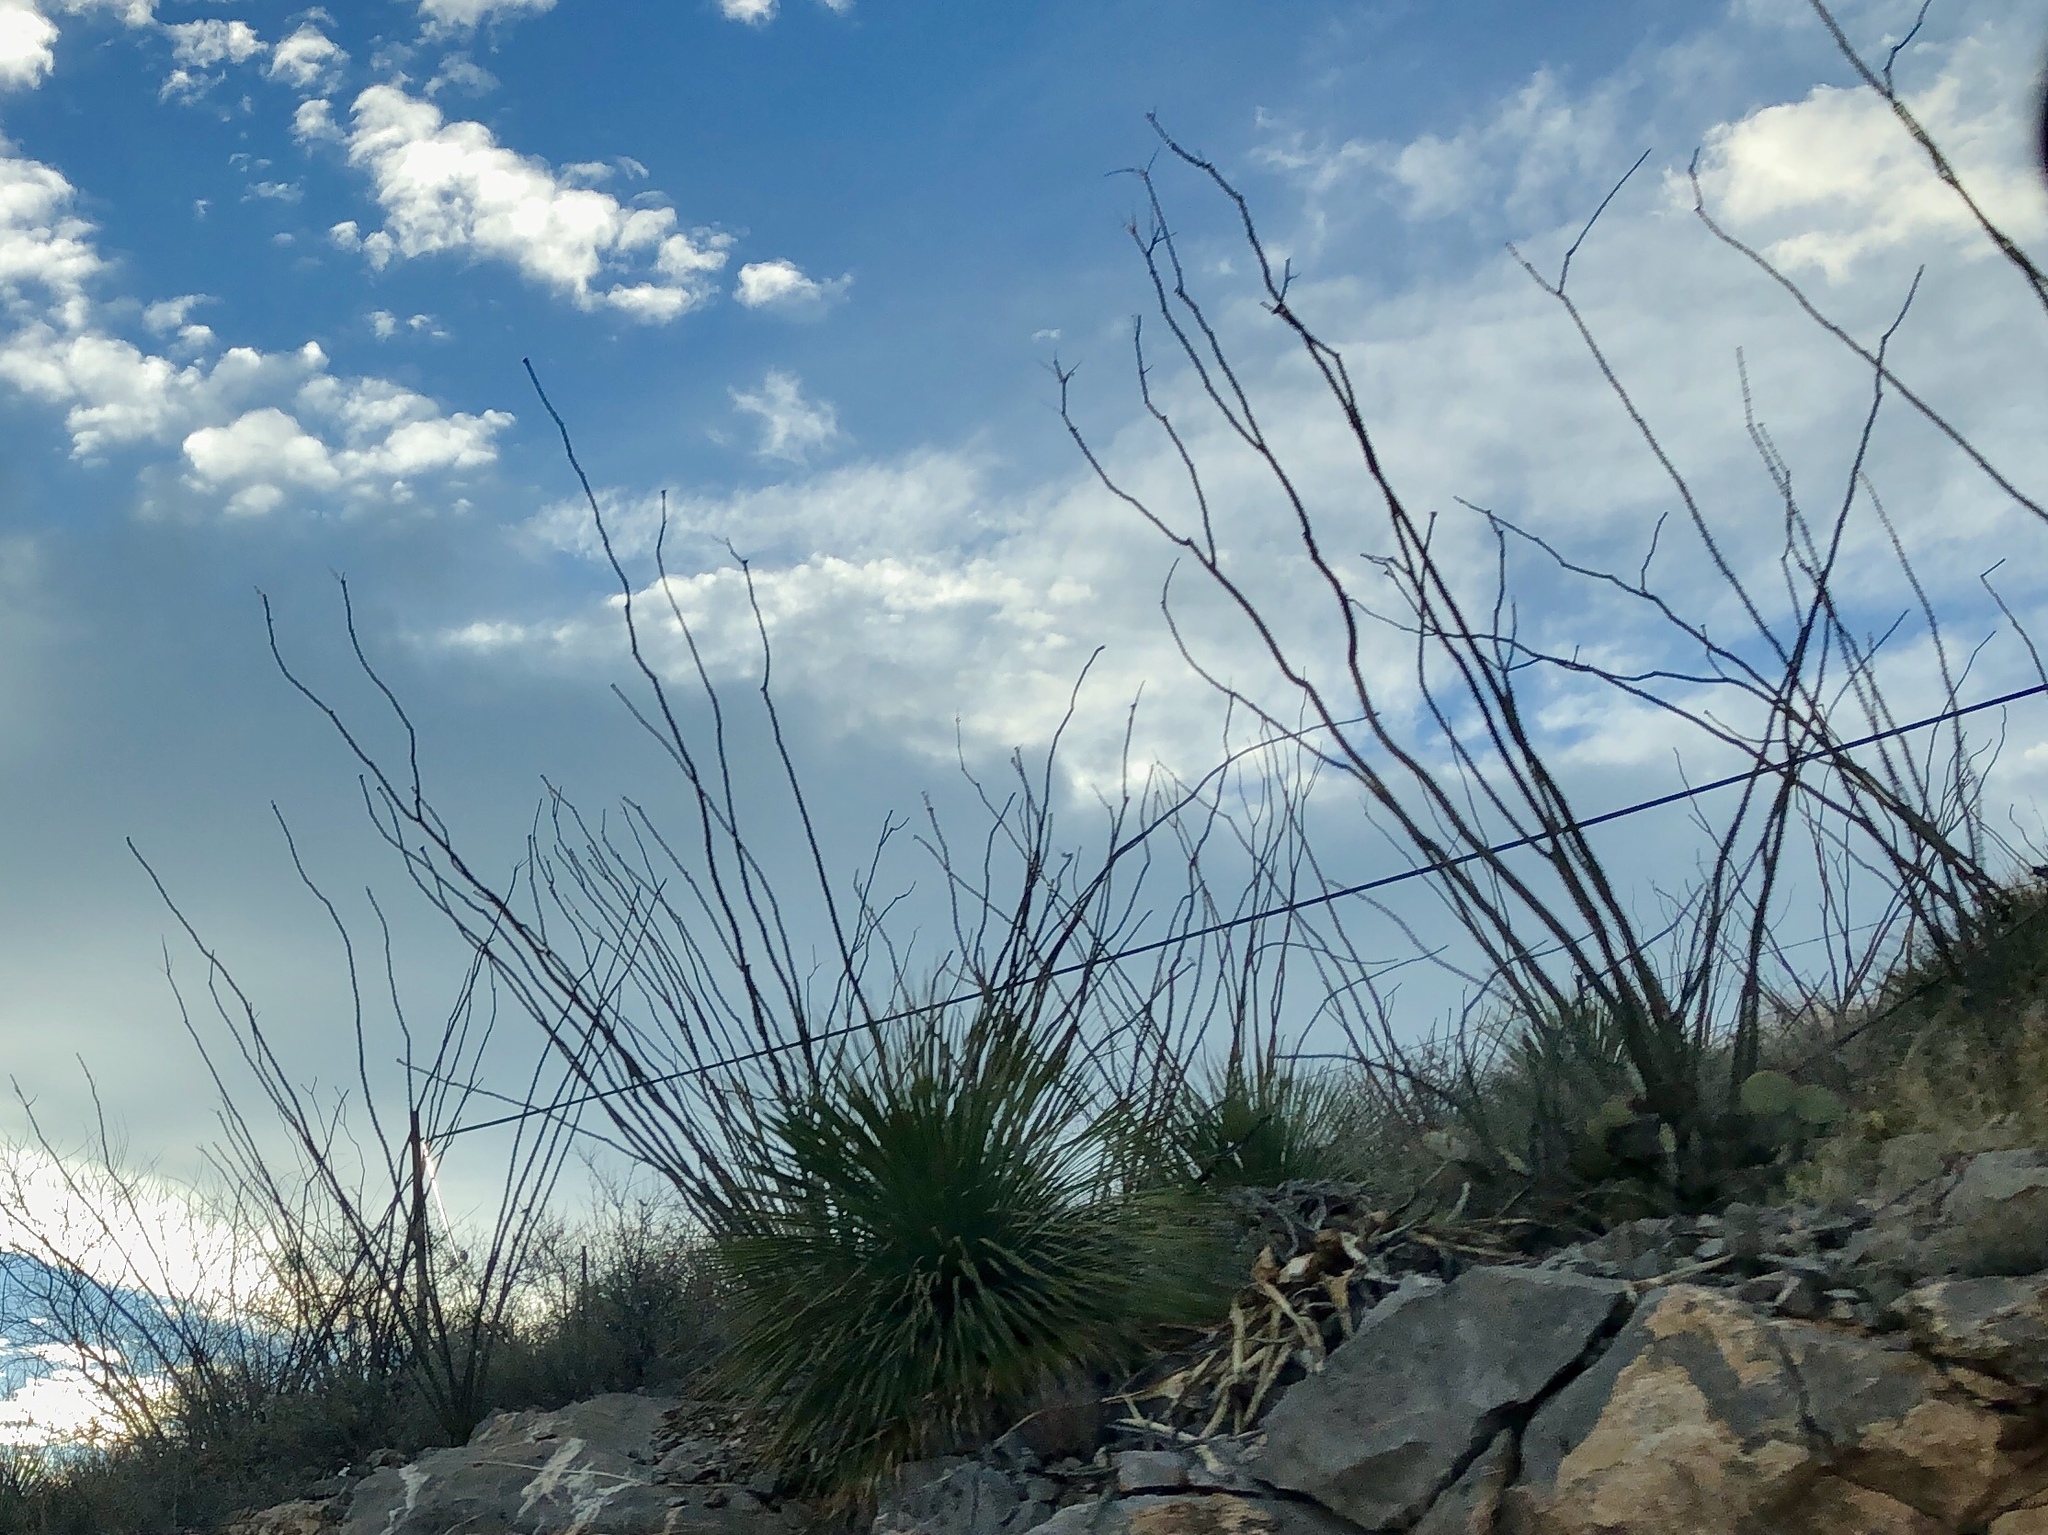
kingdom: Plantae
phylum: Tracheophyta
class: Magnoliopsida
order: Ericales
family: Fouquieriaceae
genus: Fouquieria
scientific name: Fouquieria splendens
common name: Vine-cactus
